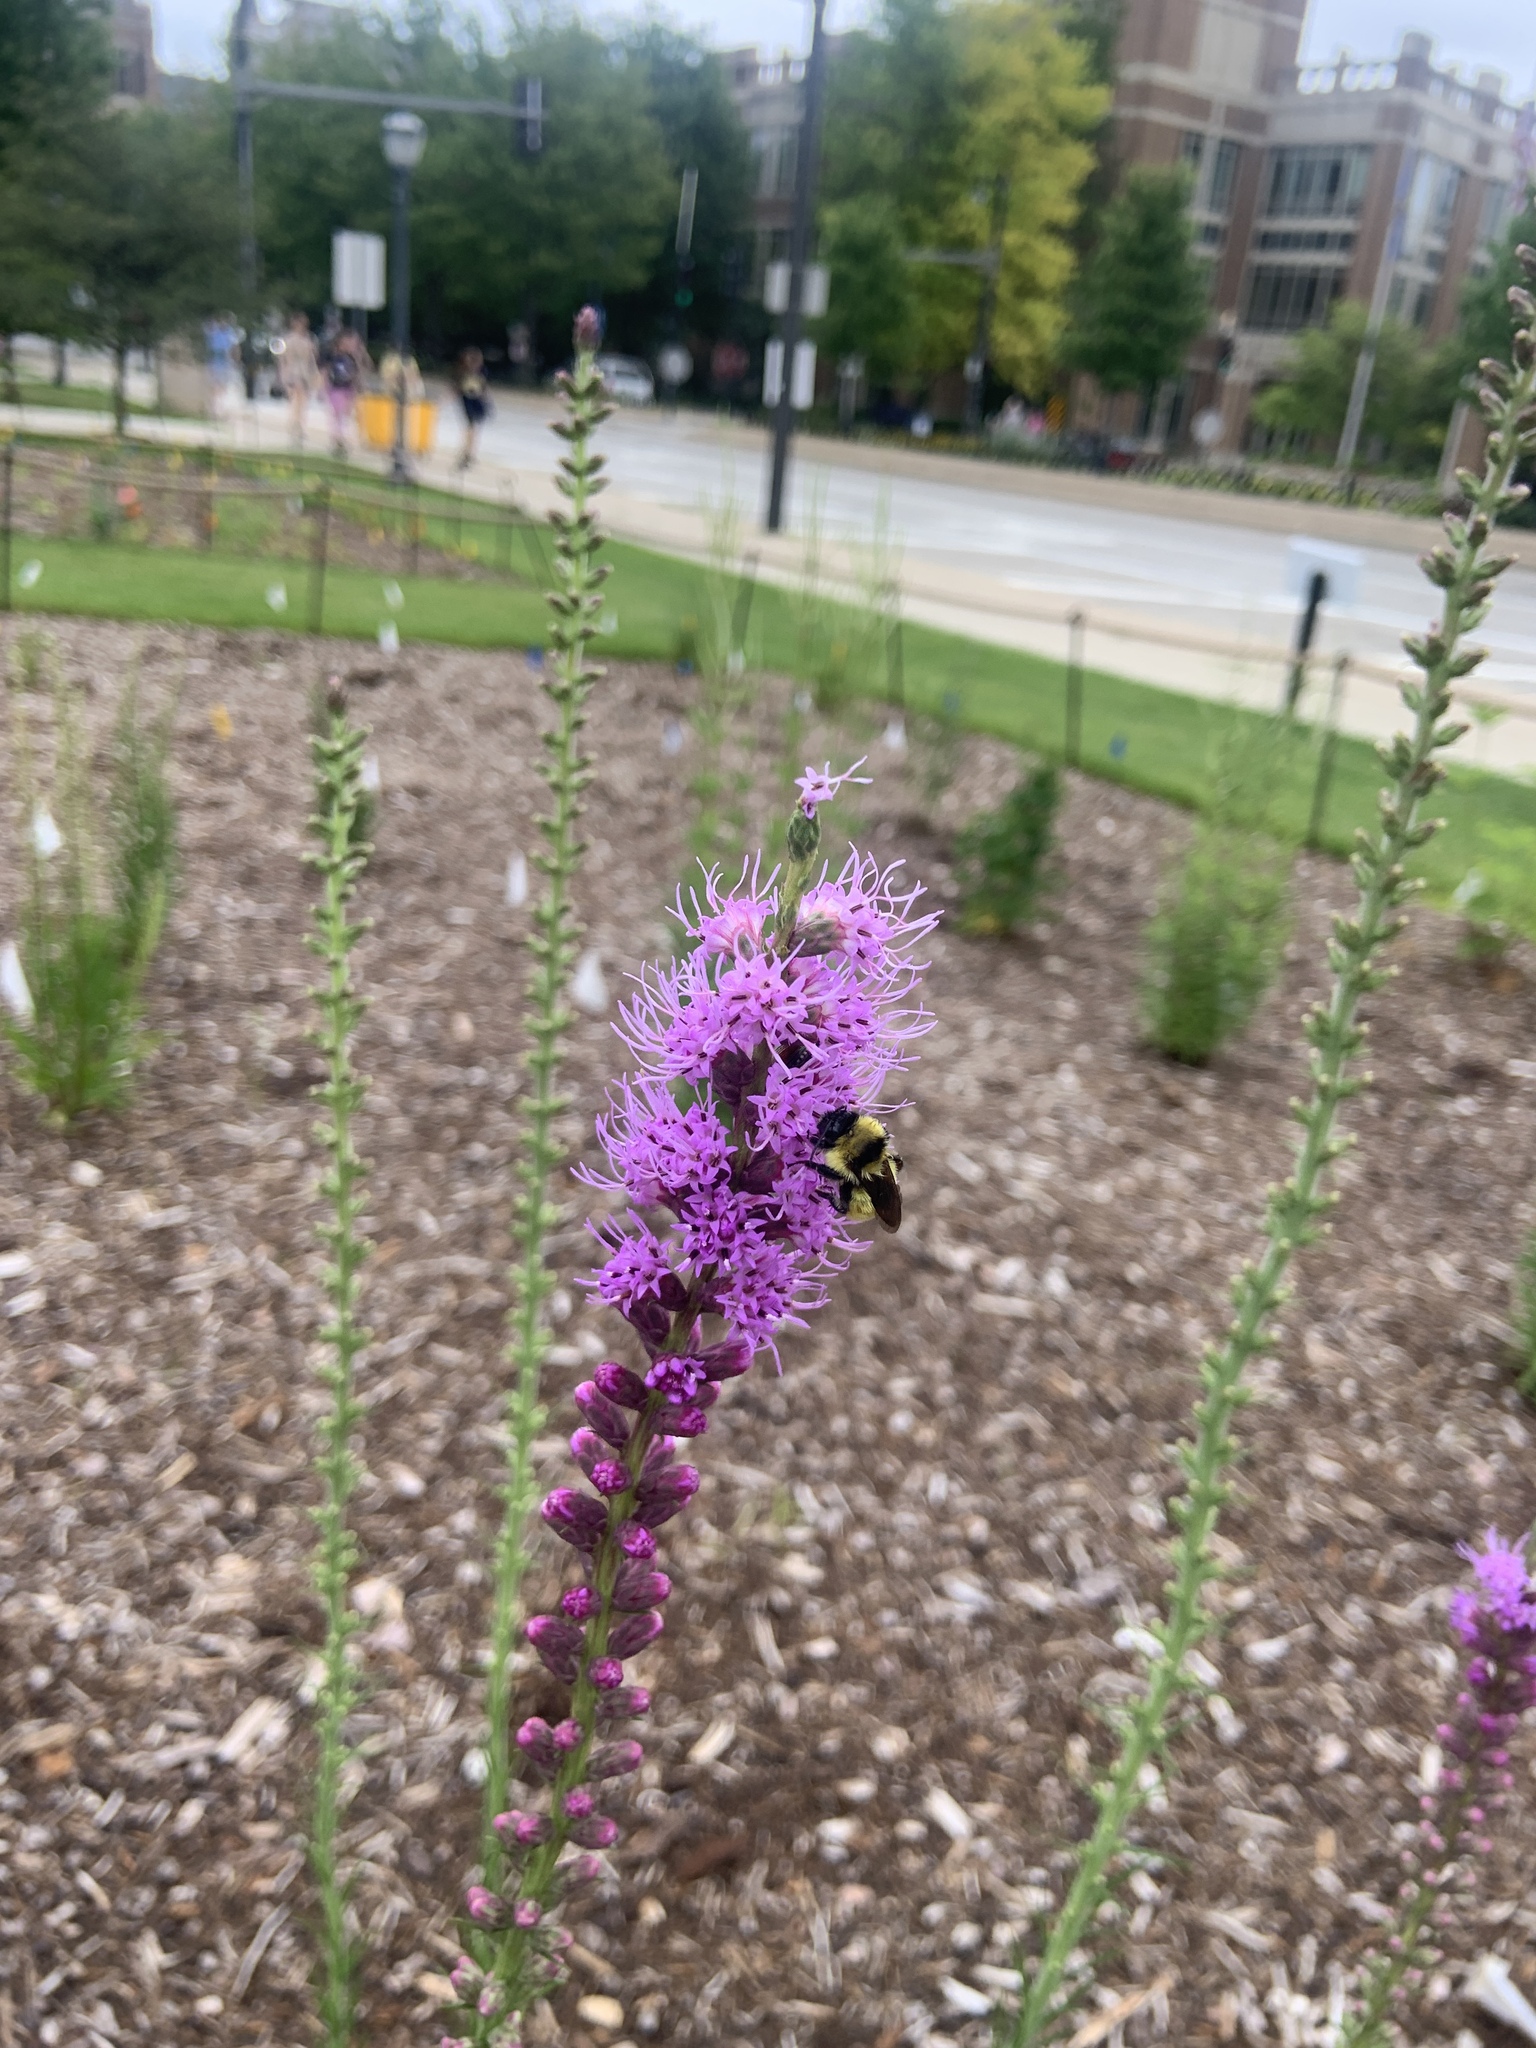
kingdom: Animalia
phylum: Arthropoda
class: Insecta
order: Hymenoptera
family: Apidae
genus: Bombus
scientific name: Bombus fervidus
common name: Yellow bumble bee
